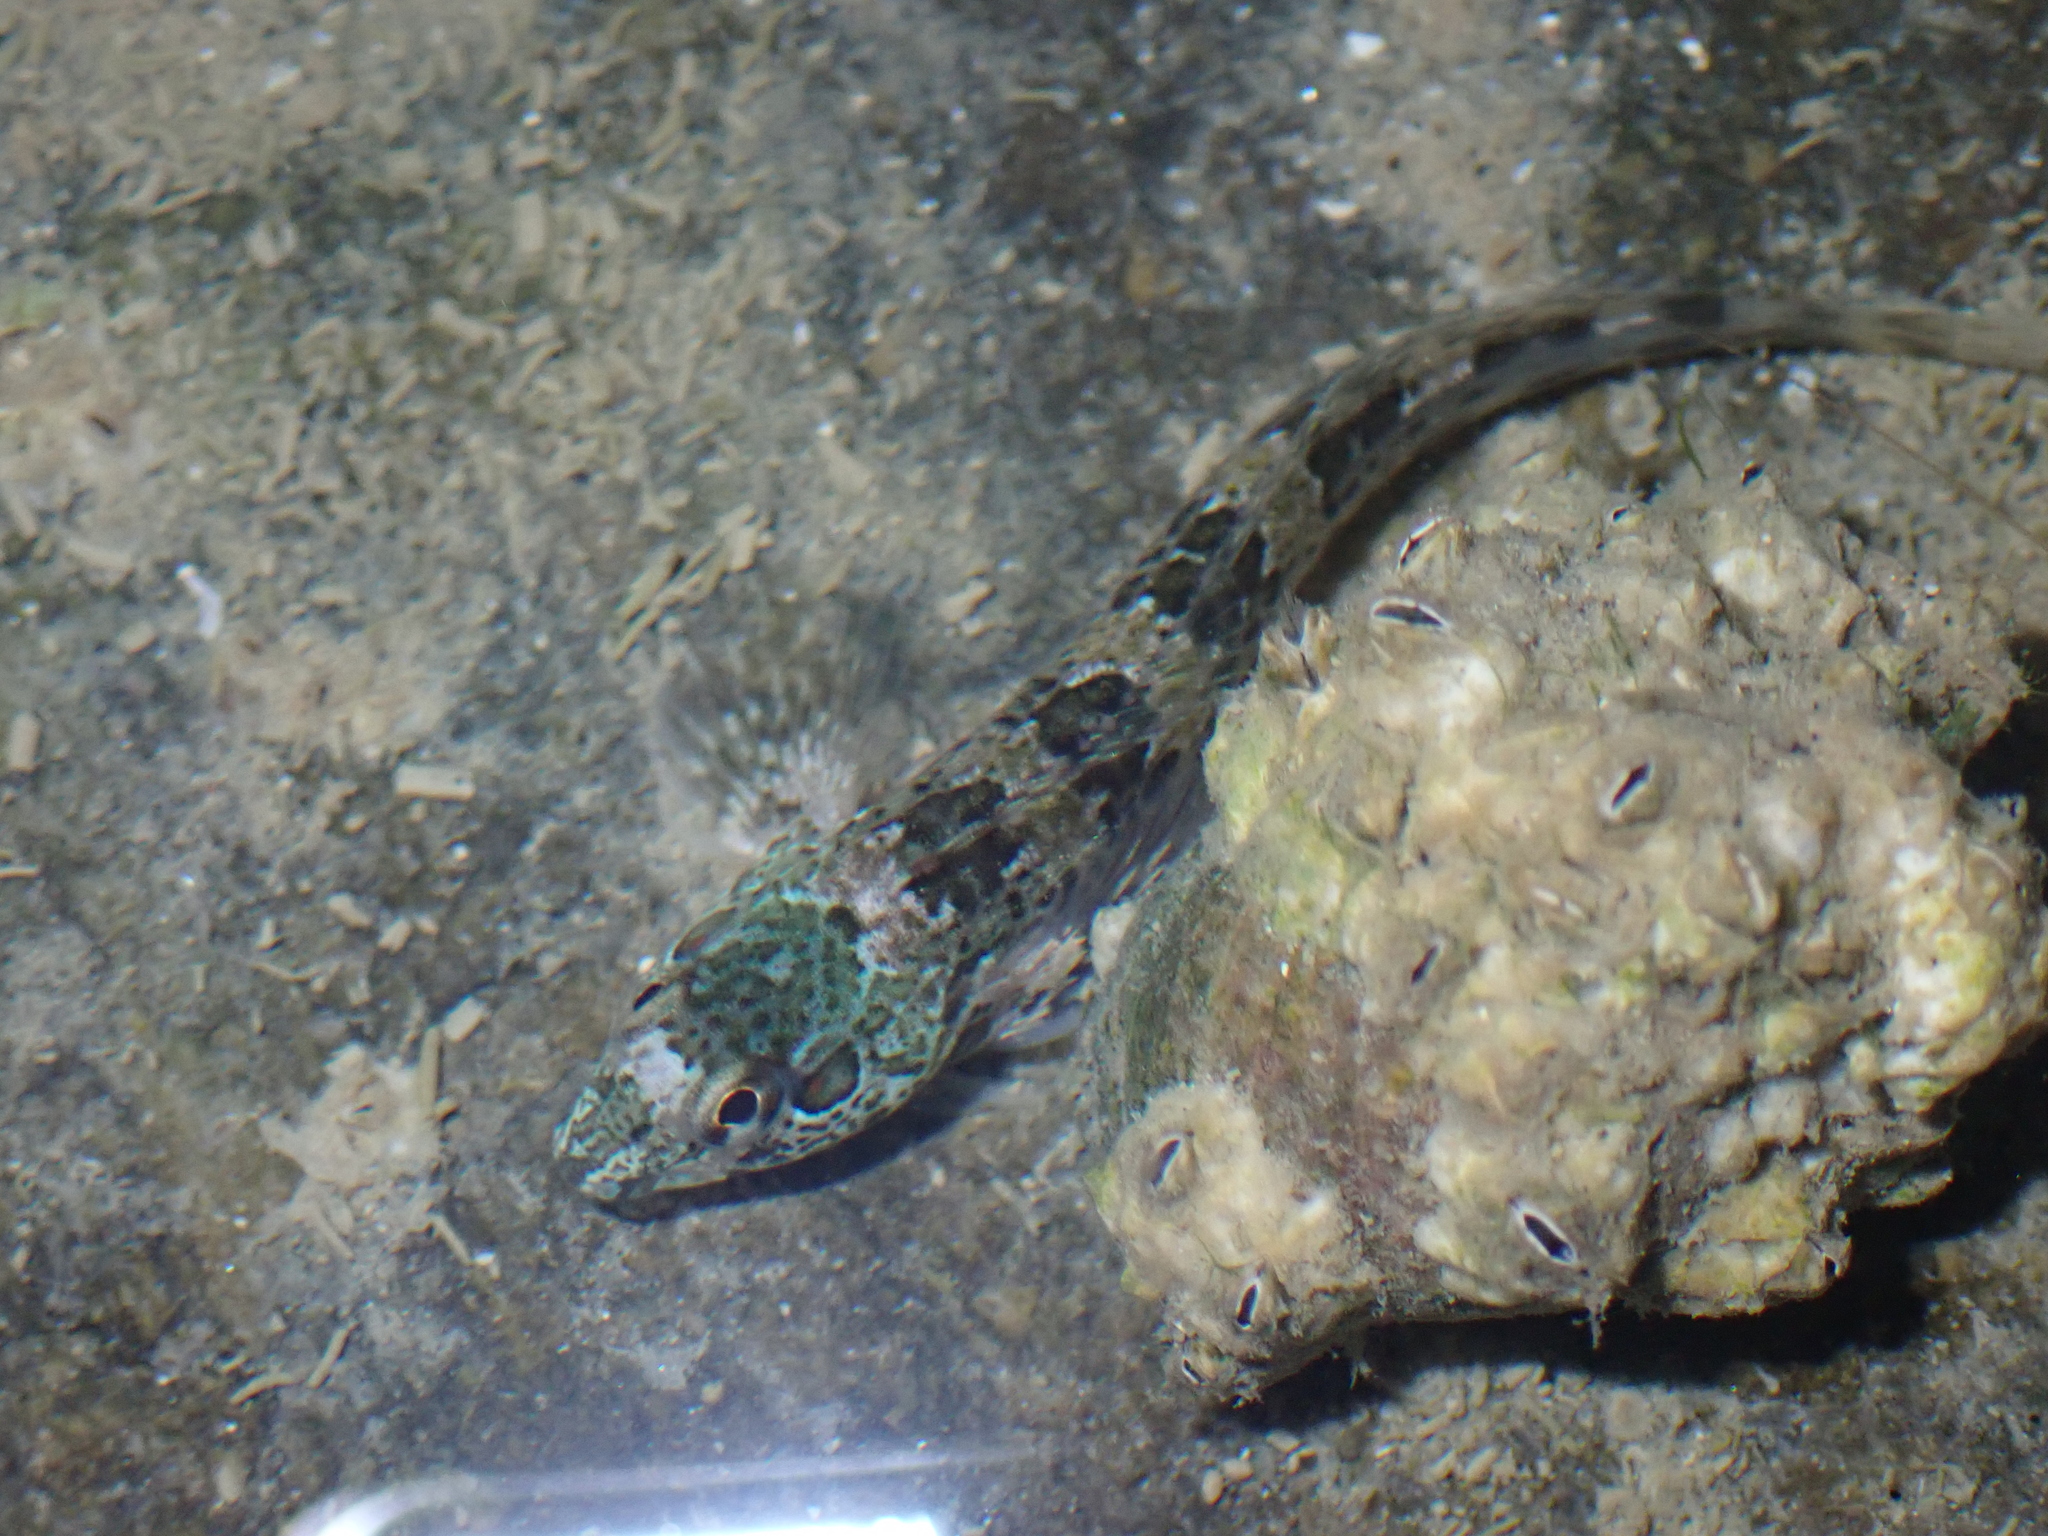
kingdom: Animalia
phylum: Chordata
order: Perciformes
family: Blenniidae
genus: Lipophrys
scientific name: Lipophrys pholis
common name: Shanny
